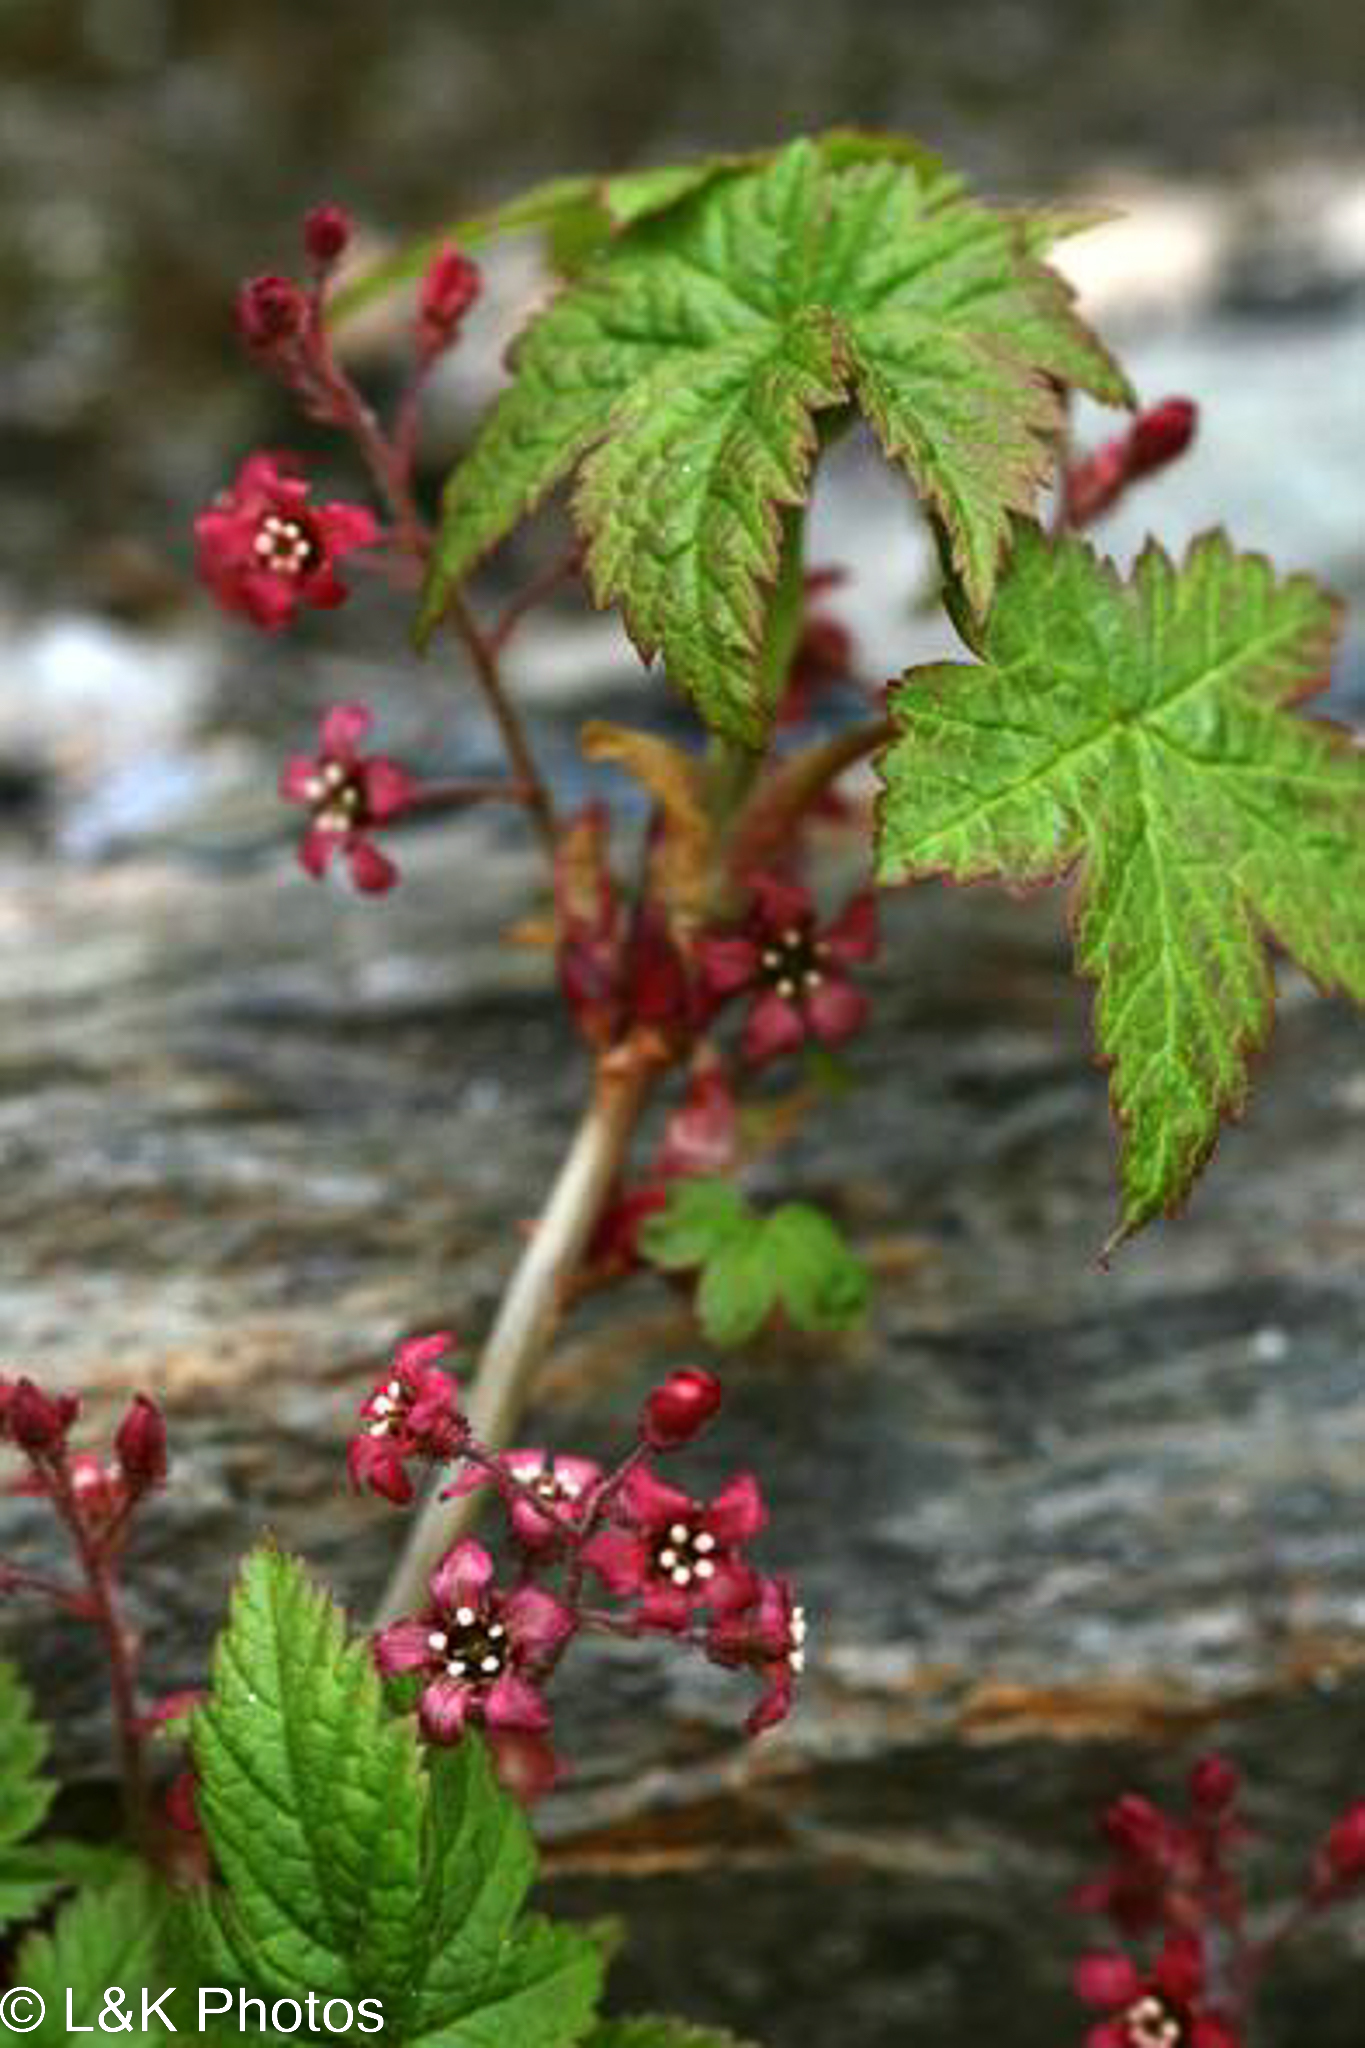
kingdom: Plantae
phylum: Tracheophyta
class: Magnoliopsida
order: Saxifragales
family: Grossulariaceae
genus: Ribes
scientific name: Ribes laxiflorum
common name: Spreading currant
